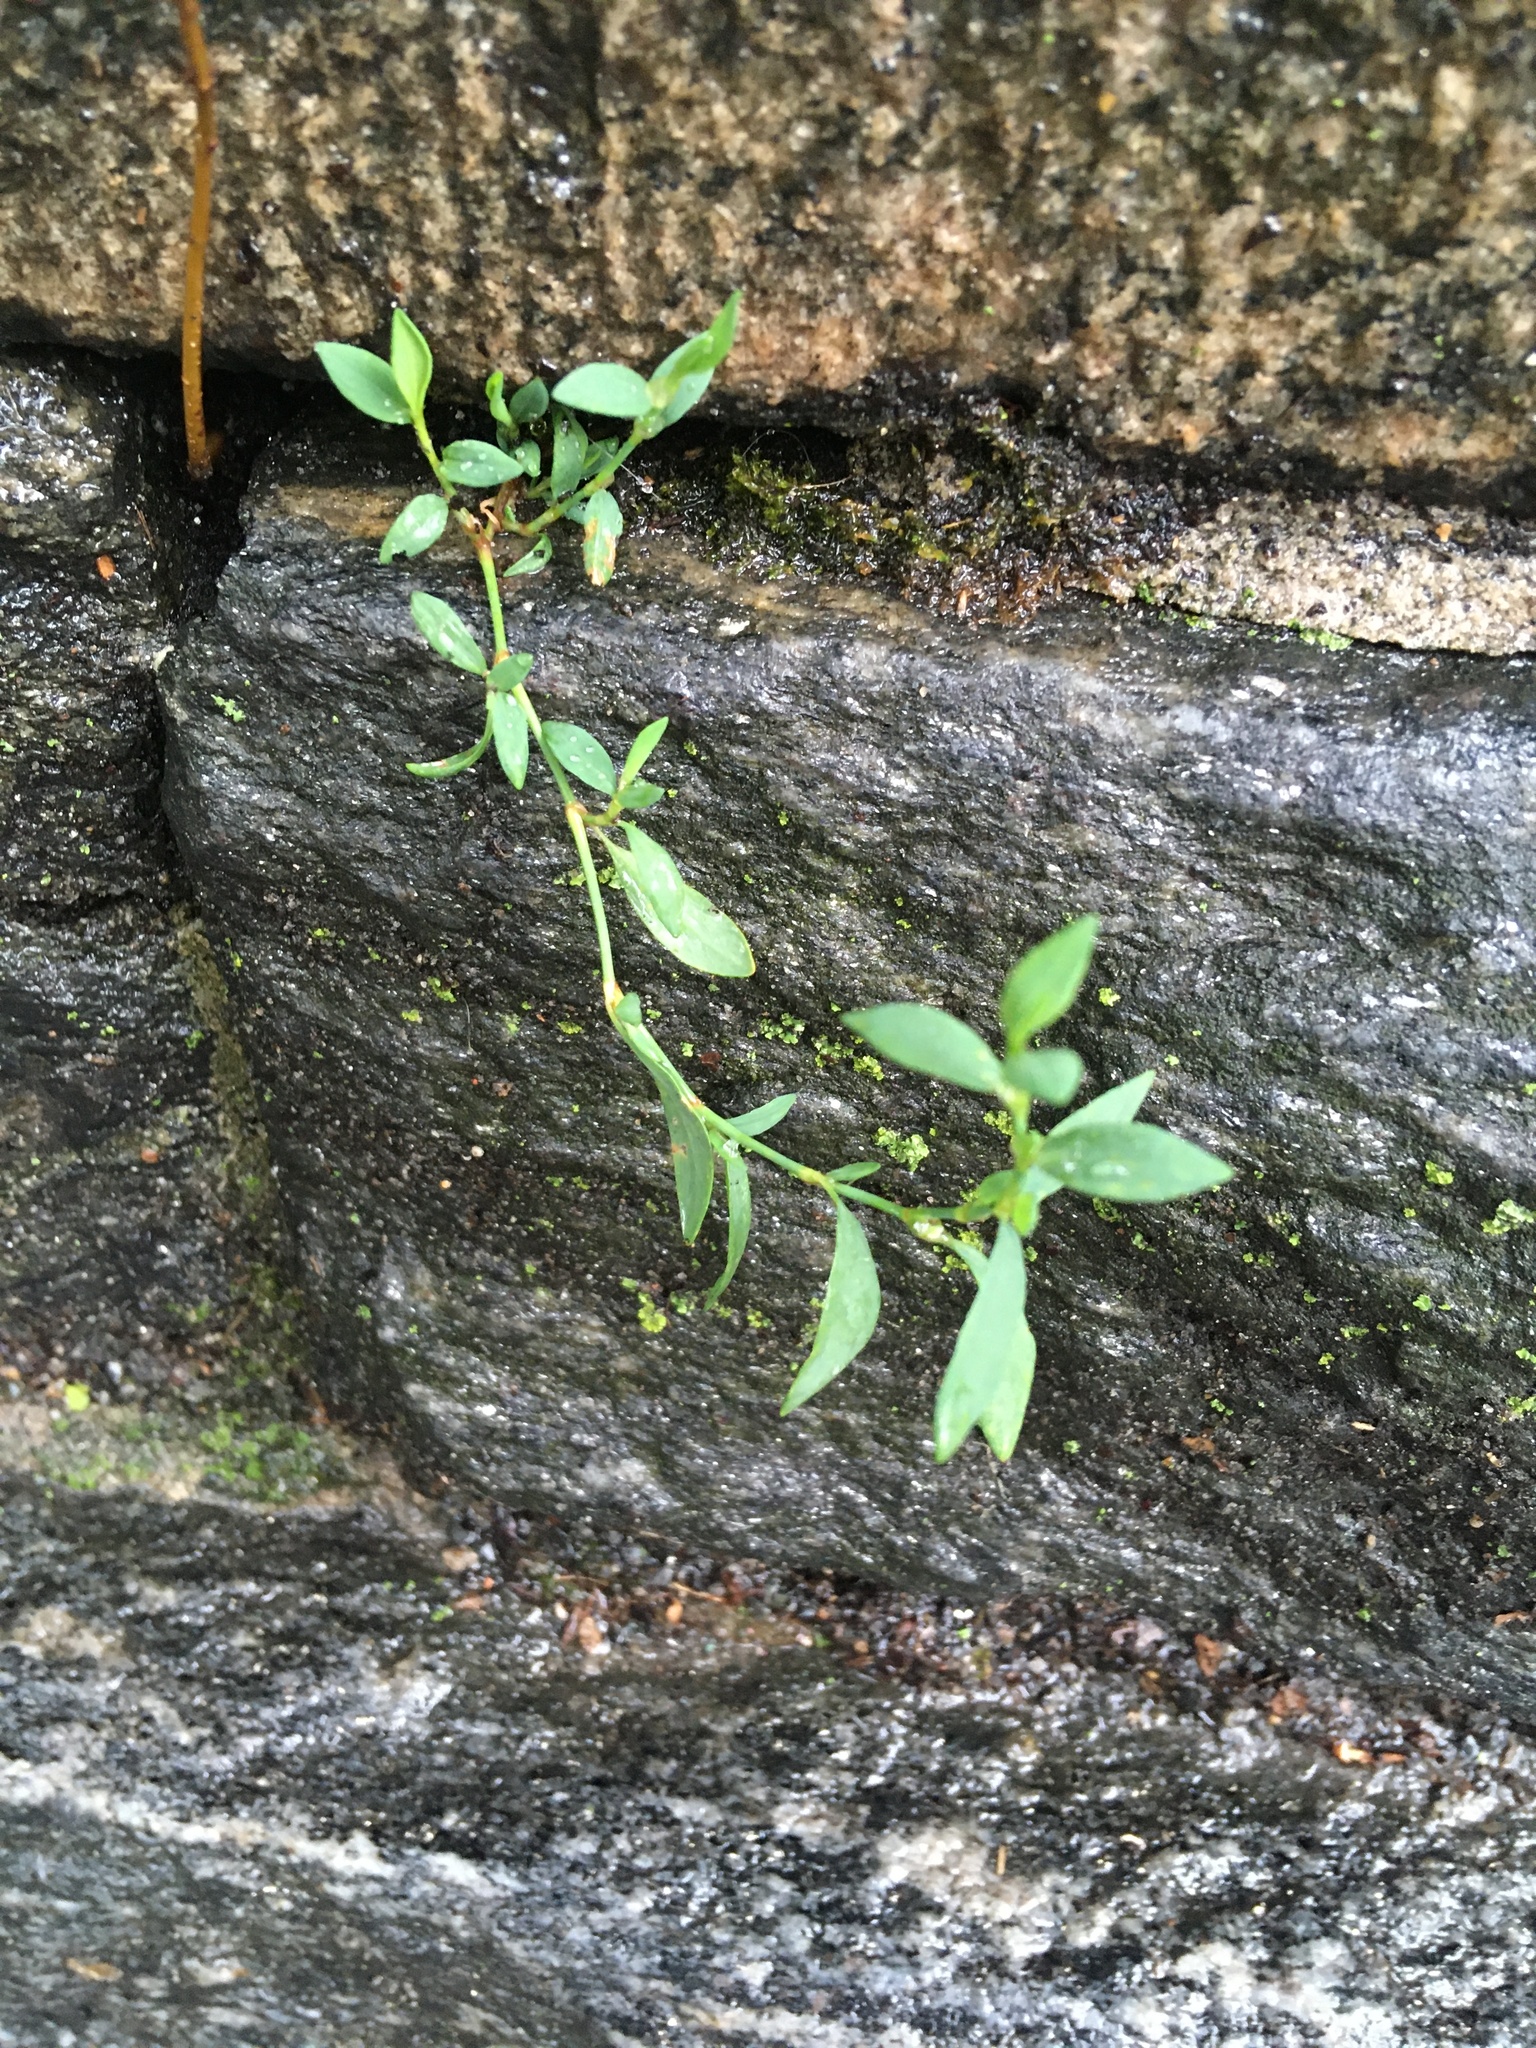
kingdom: Plantae
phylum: Tracheophyta
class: Magnoliopsida
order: Caryophyllales
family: Polygonaceae
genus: Polygonum
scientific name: Polygonum aviculare
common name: Prostrate knotweed
